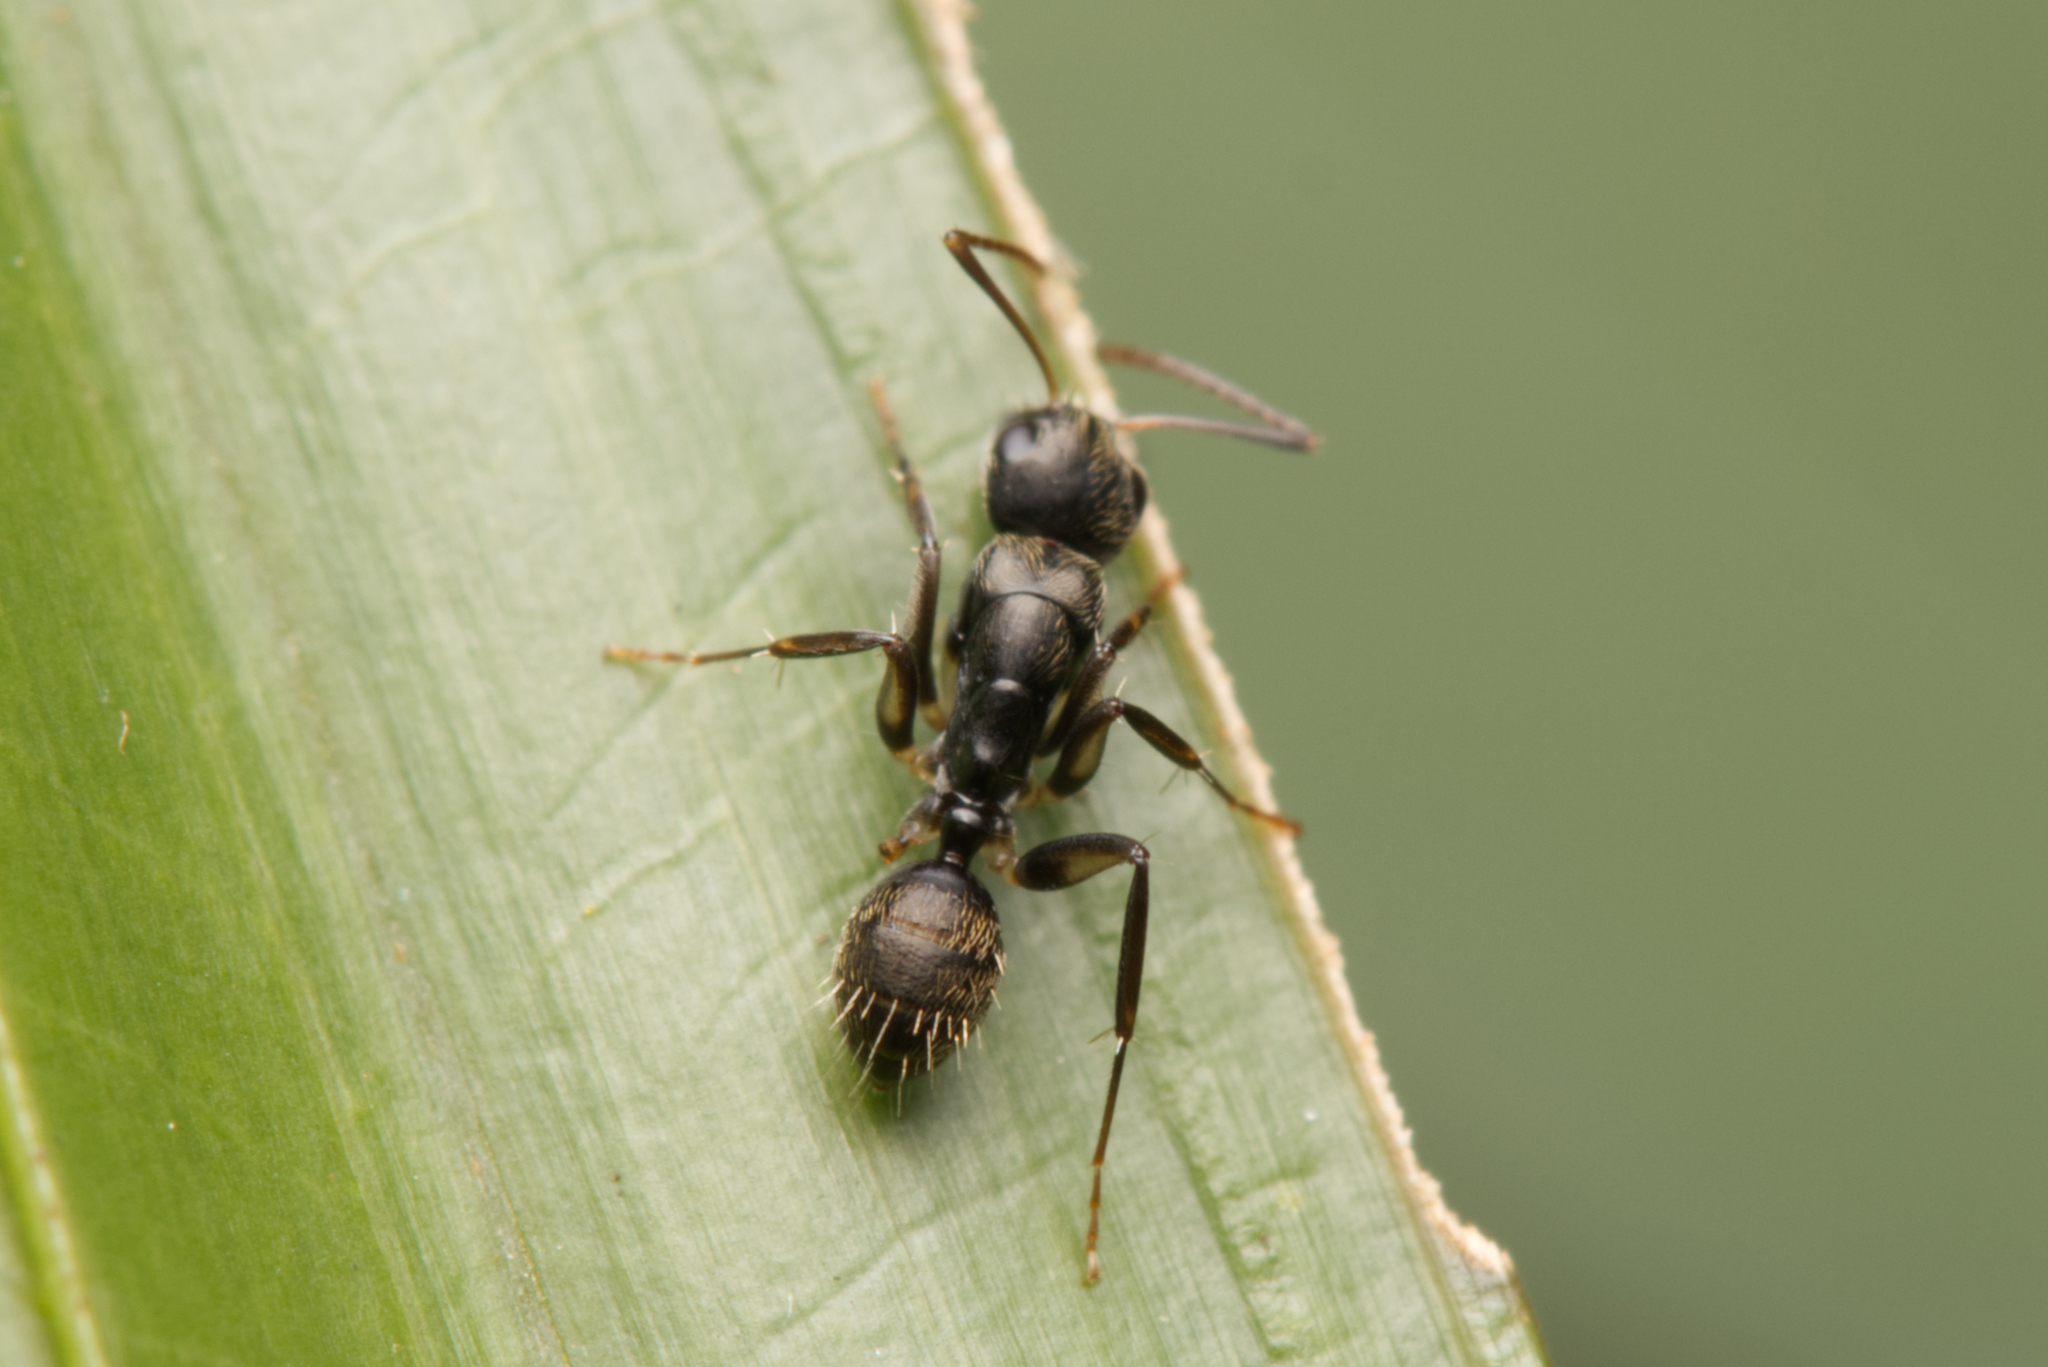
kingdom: Animalia
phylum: Arthropoda
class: Insecta
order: Hymenoptera
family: Formicidae
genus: Camponotus
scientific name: Camponotus froggatti
